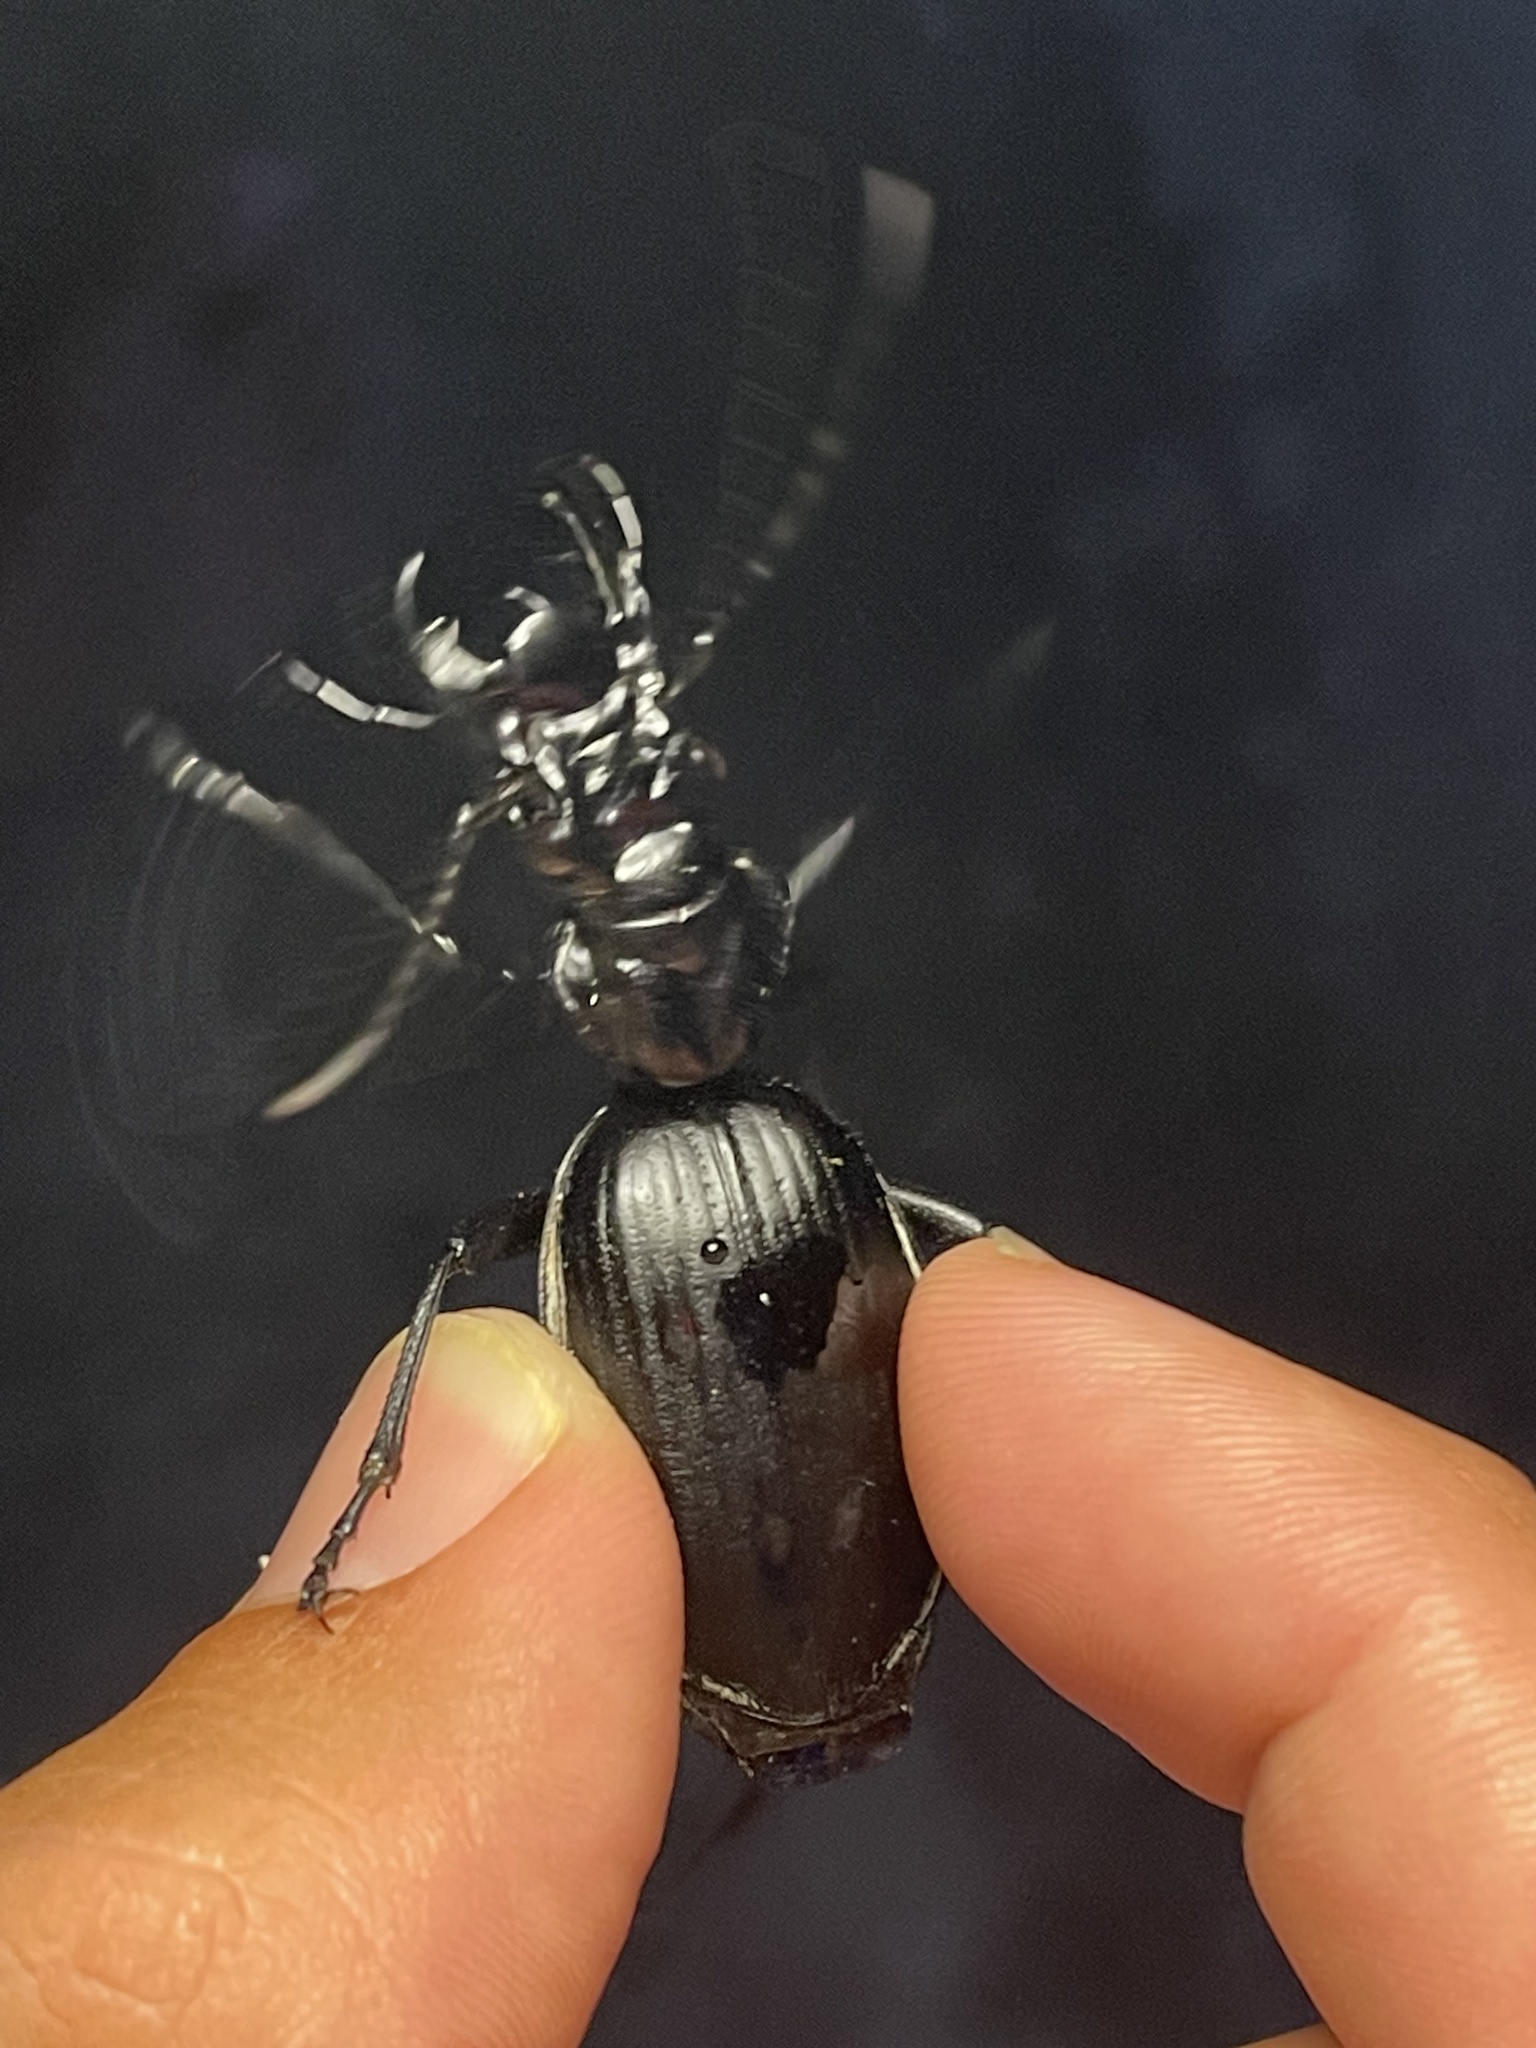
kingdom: Animalia
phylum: Arthropoda
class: Insecta
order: Coleoptera
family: Carabidae
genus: Anthia
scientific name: Anthia cinctipennis
